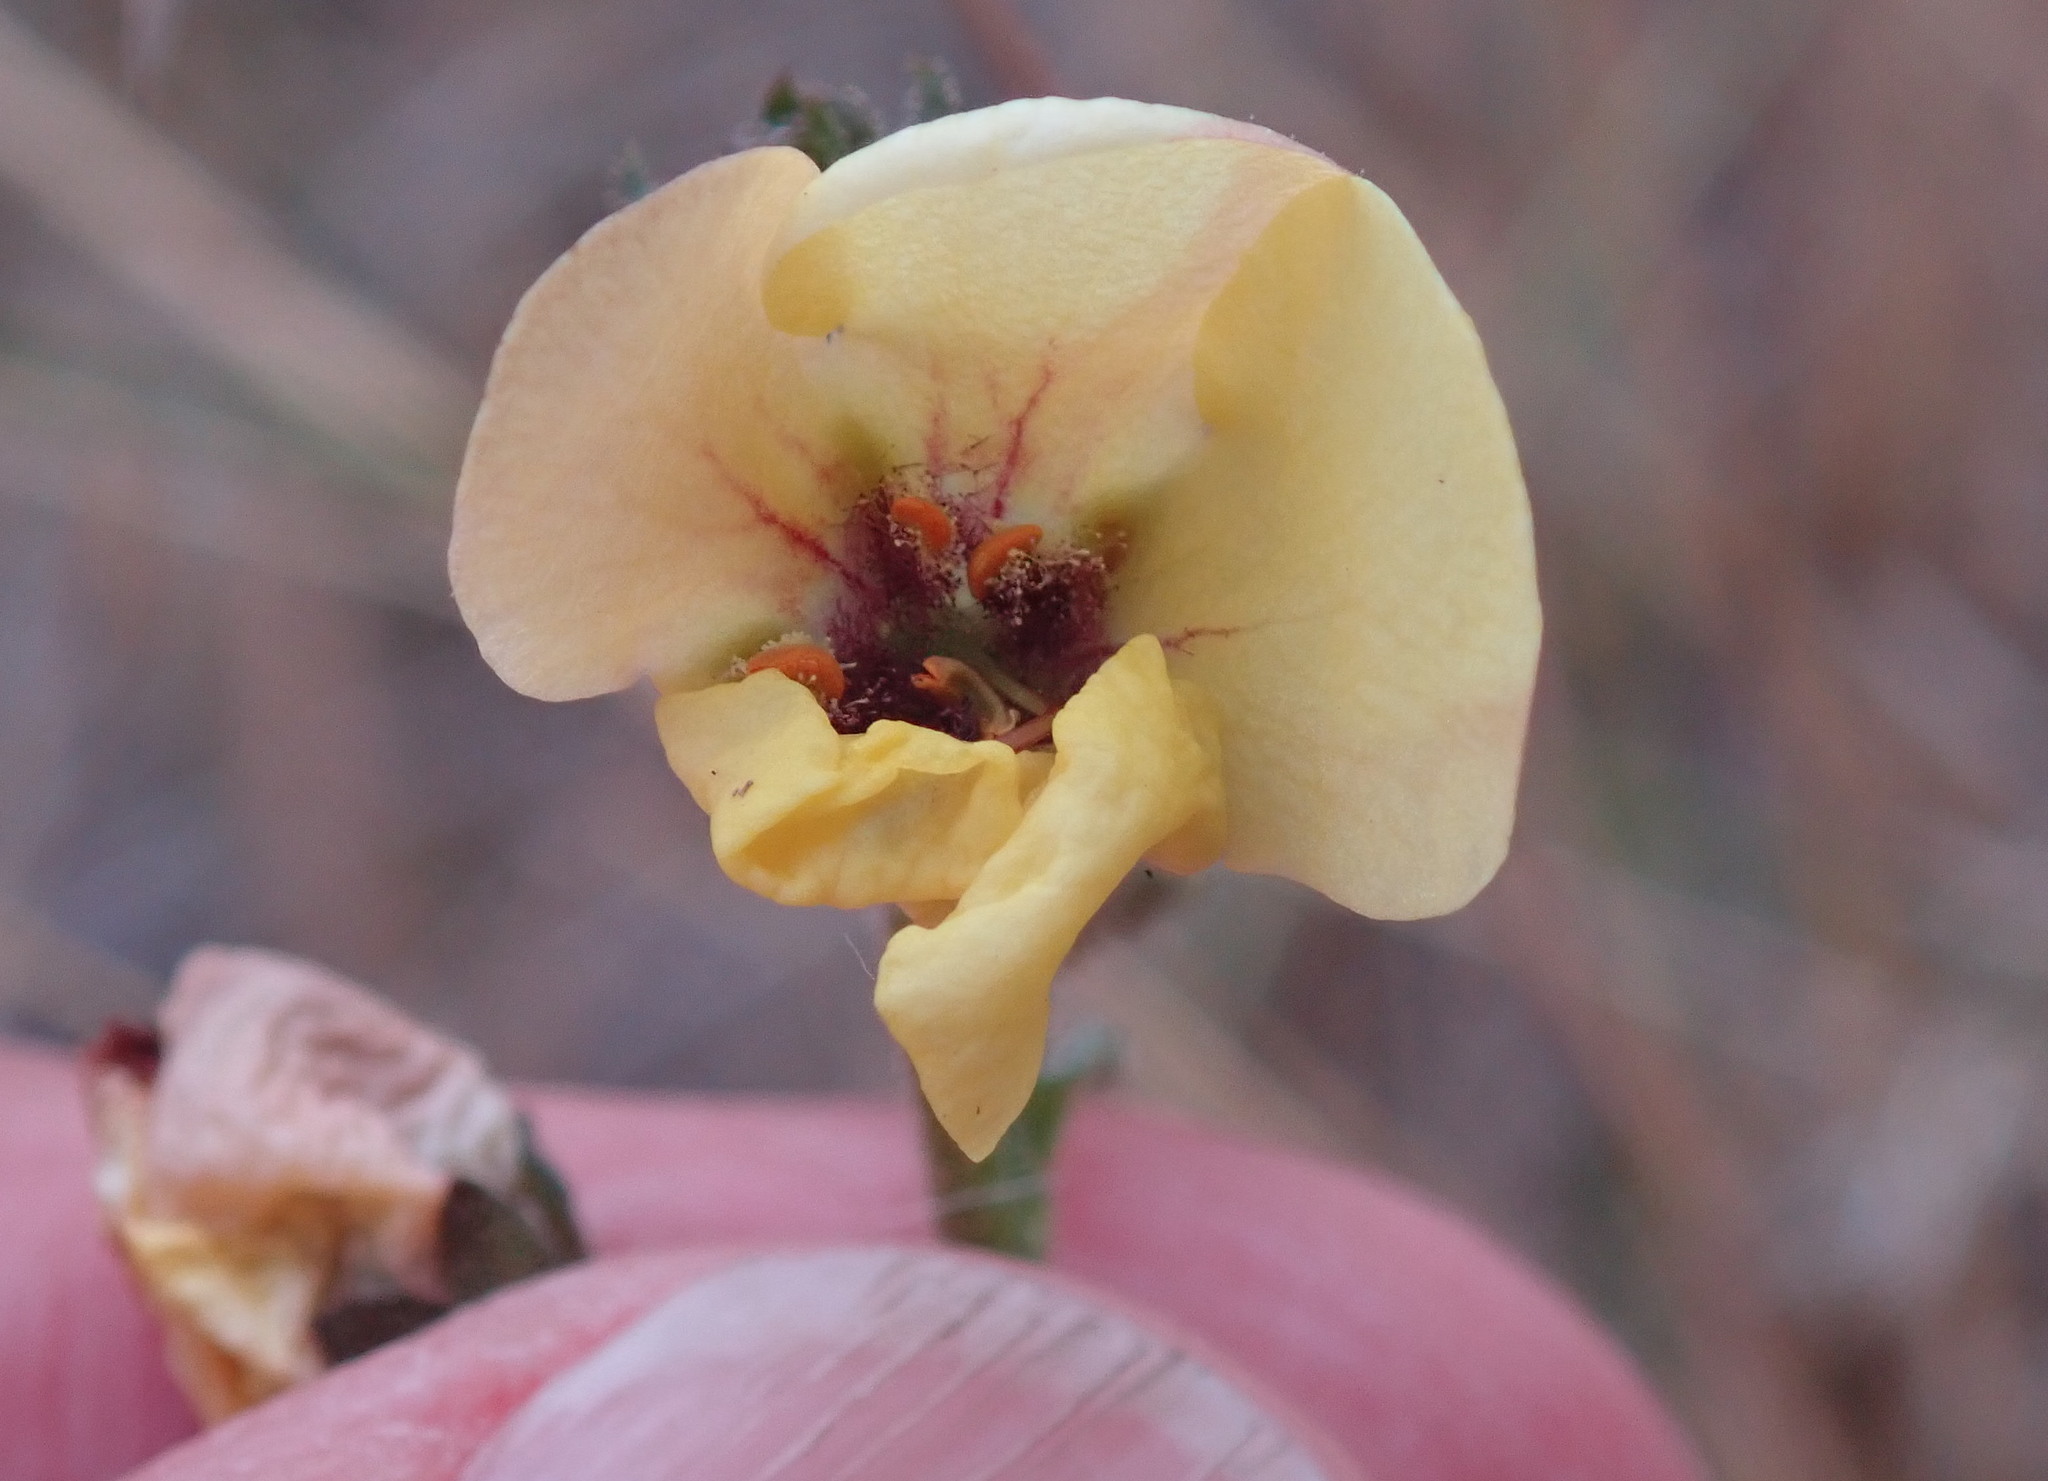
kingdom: Plantae
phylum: Tracheophyta
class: Magnoliopsida
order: Lamiales
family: Scrophulariaceae
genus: Verbascum
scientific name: Verbascum blattaria
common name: Moth mullein
